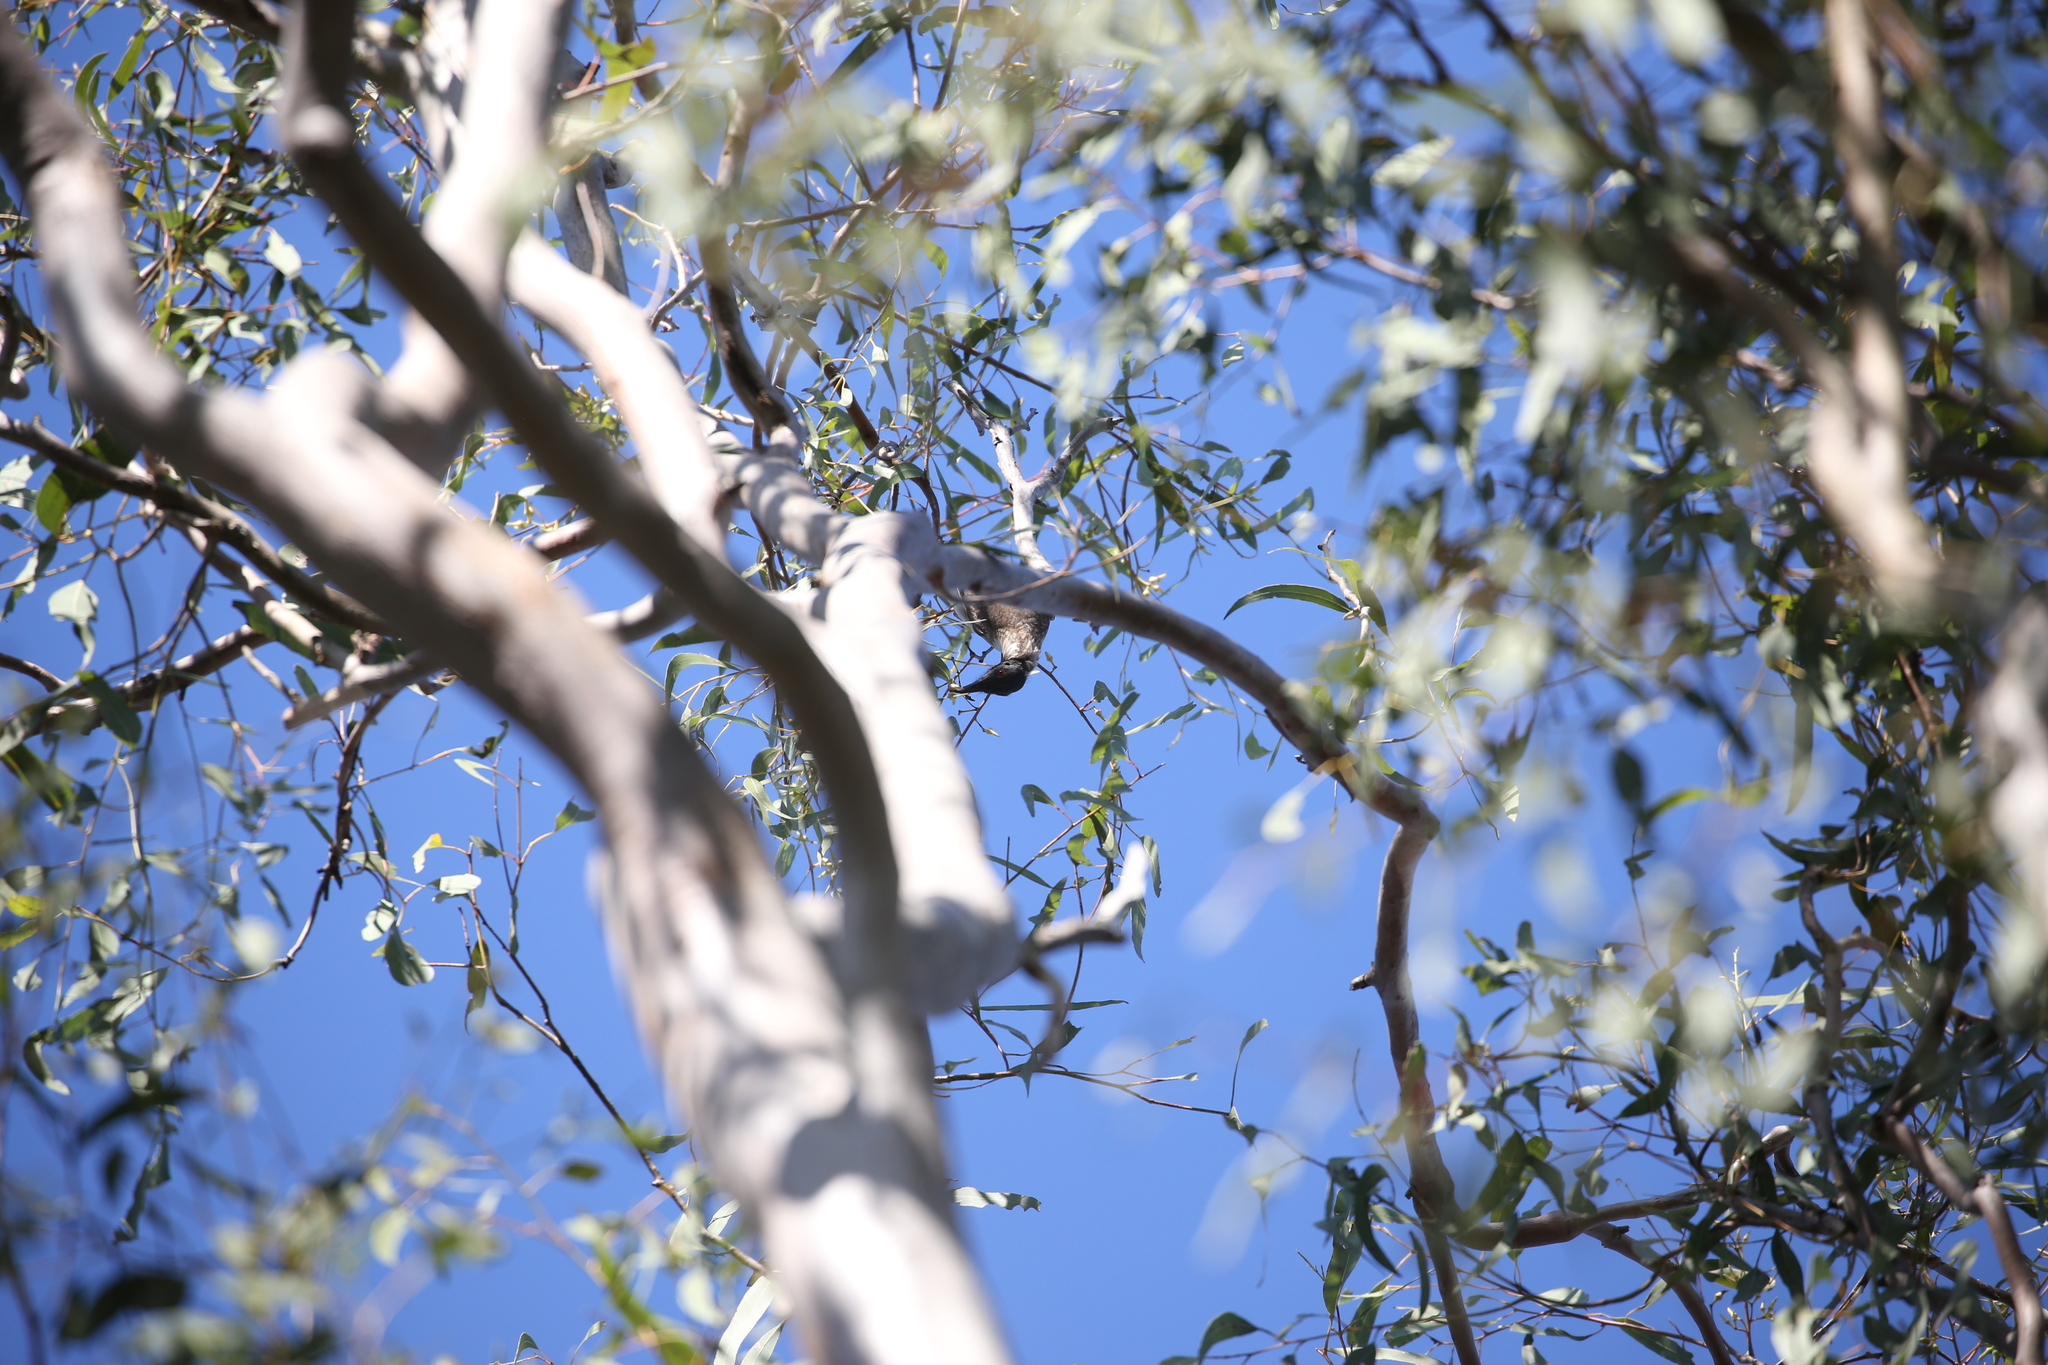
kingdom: Animalia
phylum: Chordata
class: Aves
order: Passeriformes
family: Meliphagidae
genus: Philemon
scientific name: Philemon corniculatus
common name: Noisy friarbird
